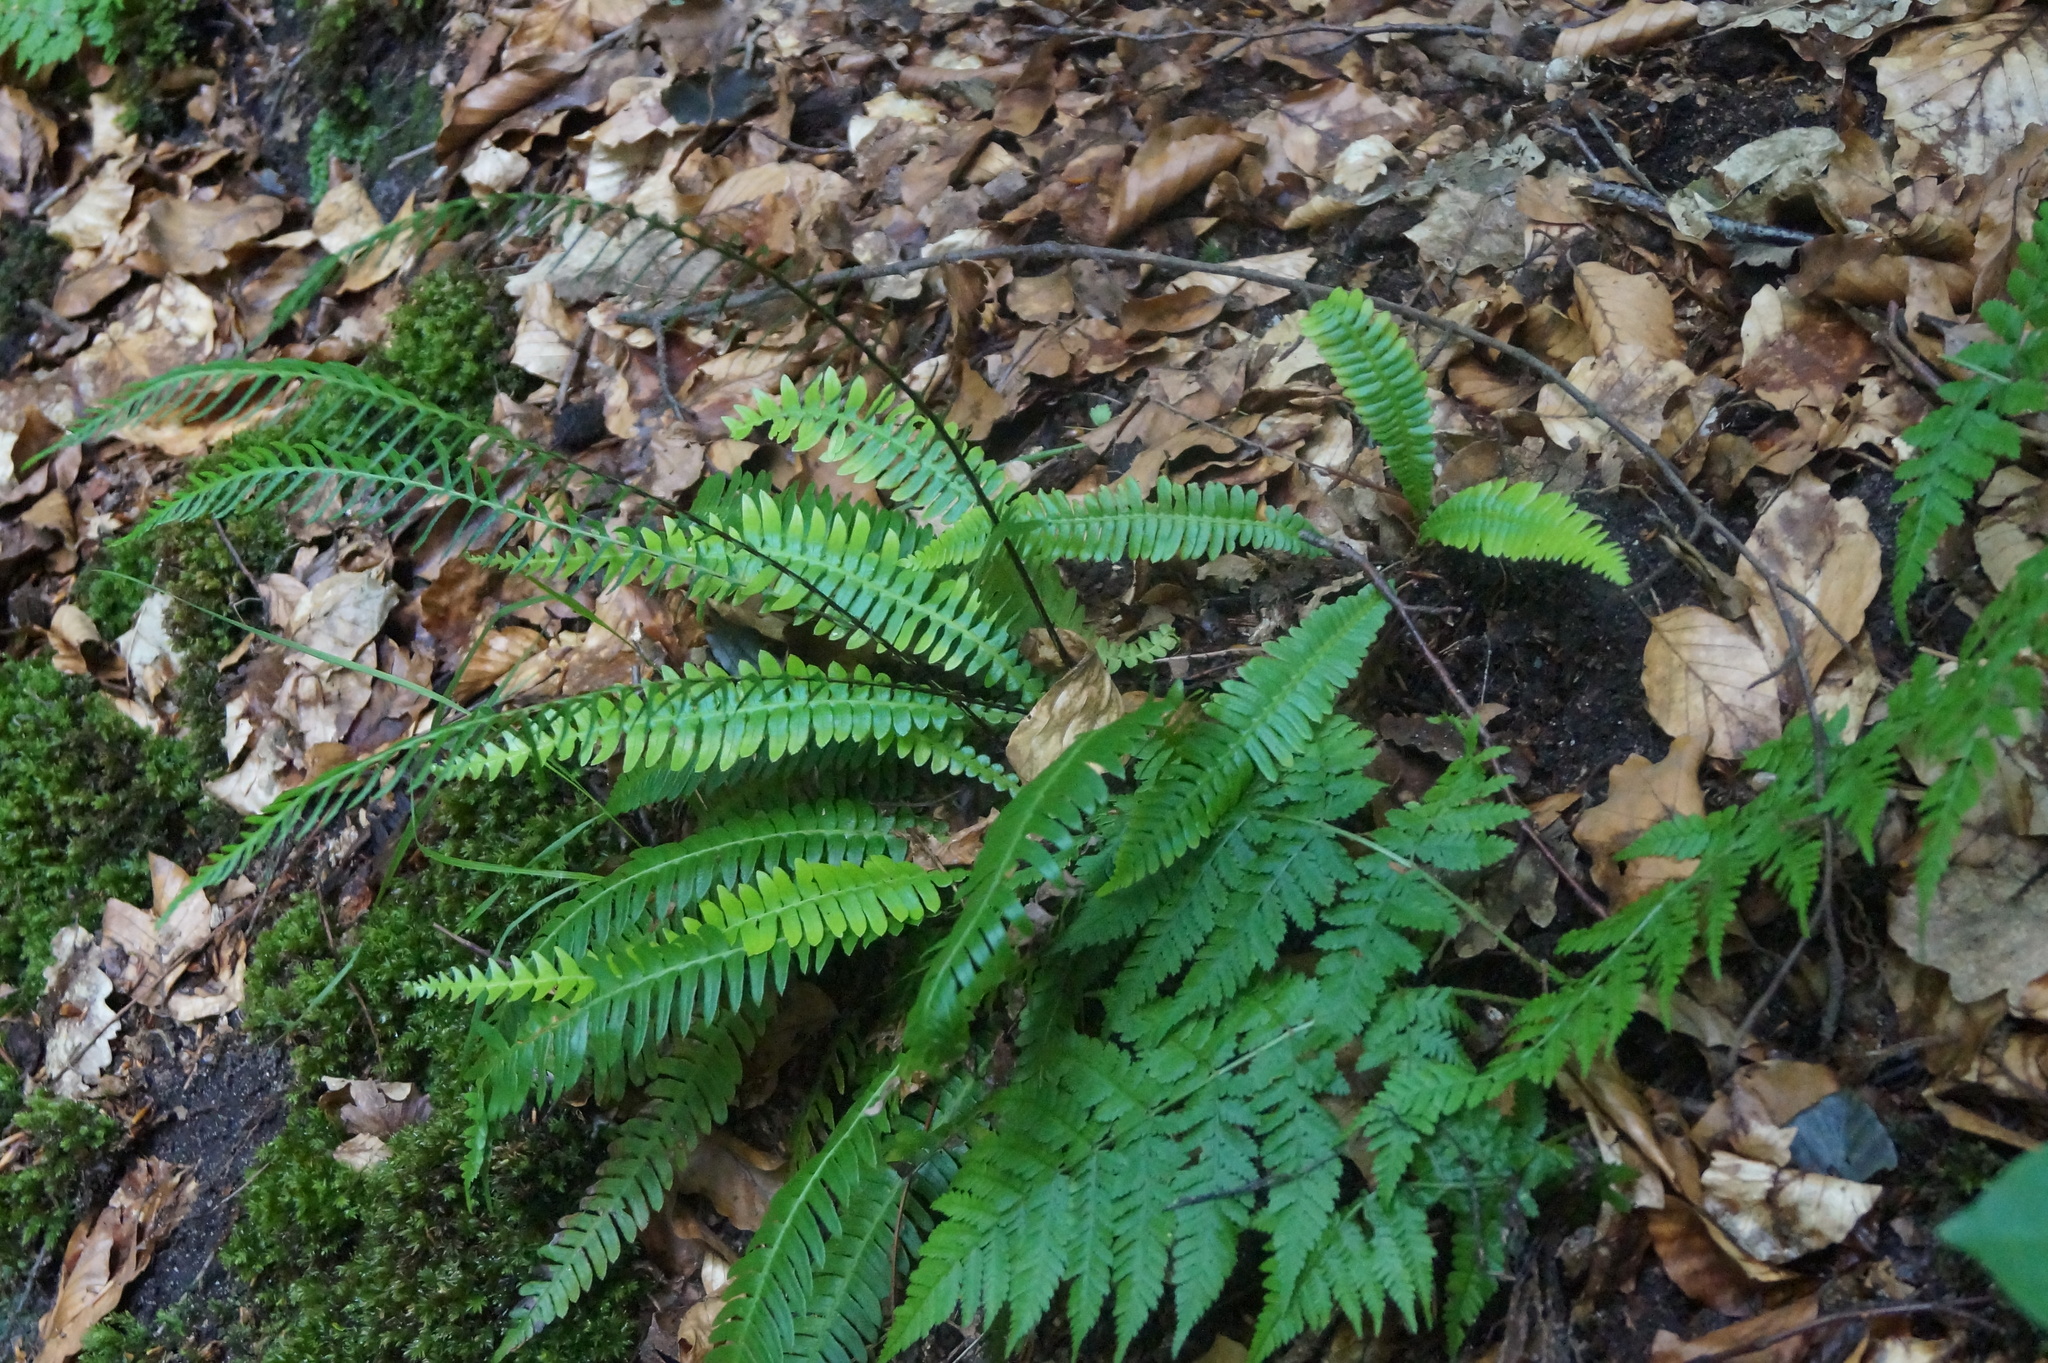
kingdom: Plantae
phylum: Tracheophyta
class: Polypodiopsida
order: Polypodiales
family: Blechnaceae
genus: Struthiopteris
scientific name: Struthiopteris spicant
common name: Deer fern
